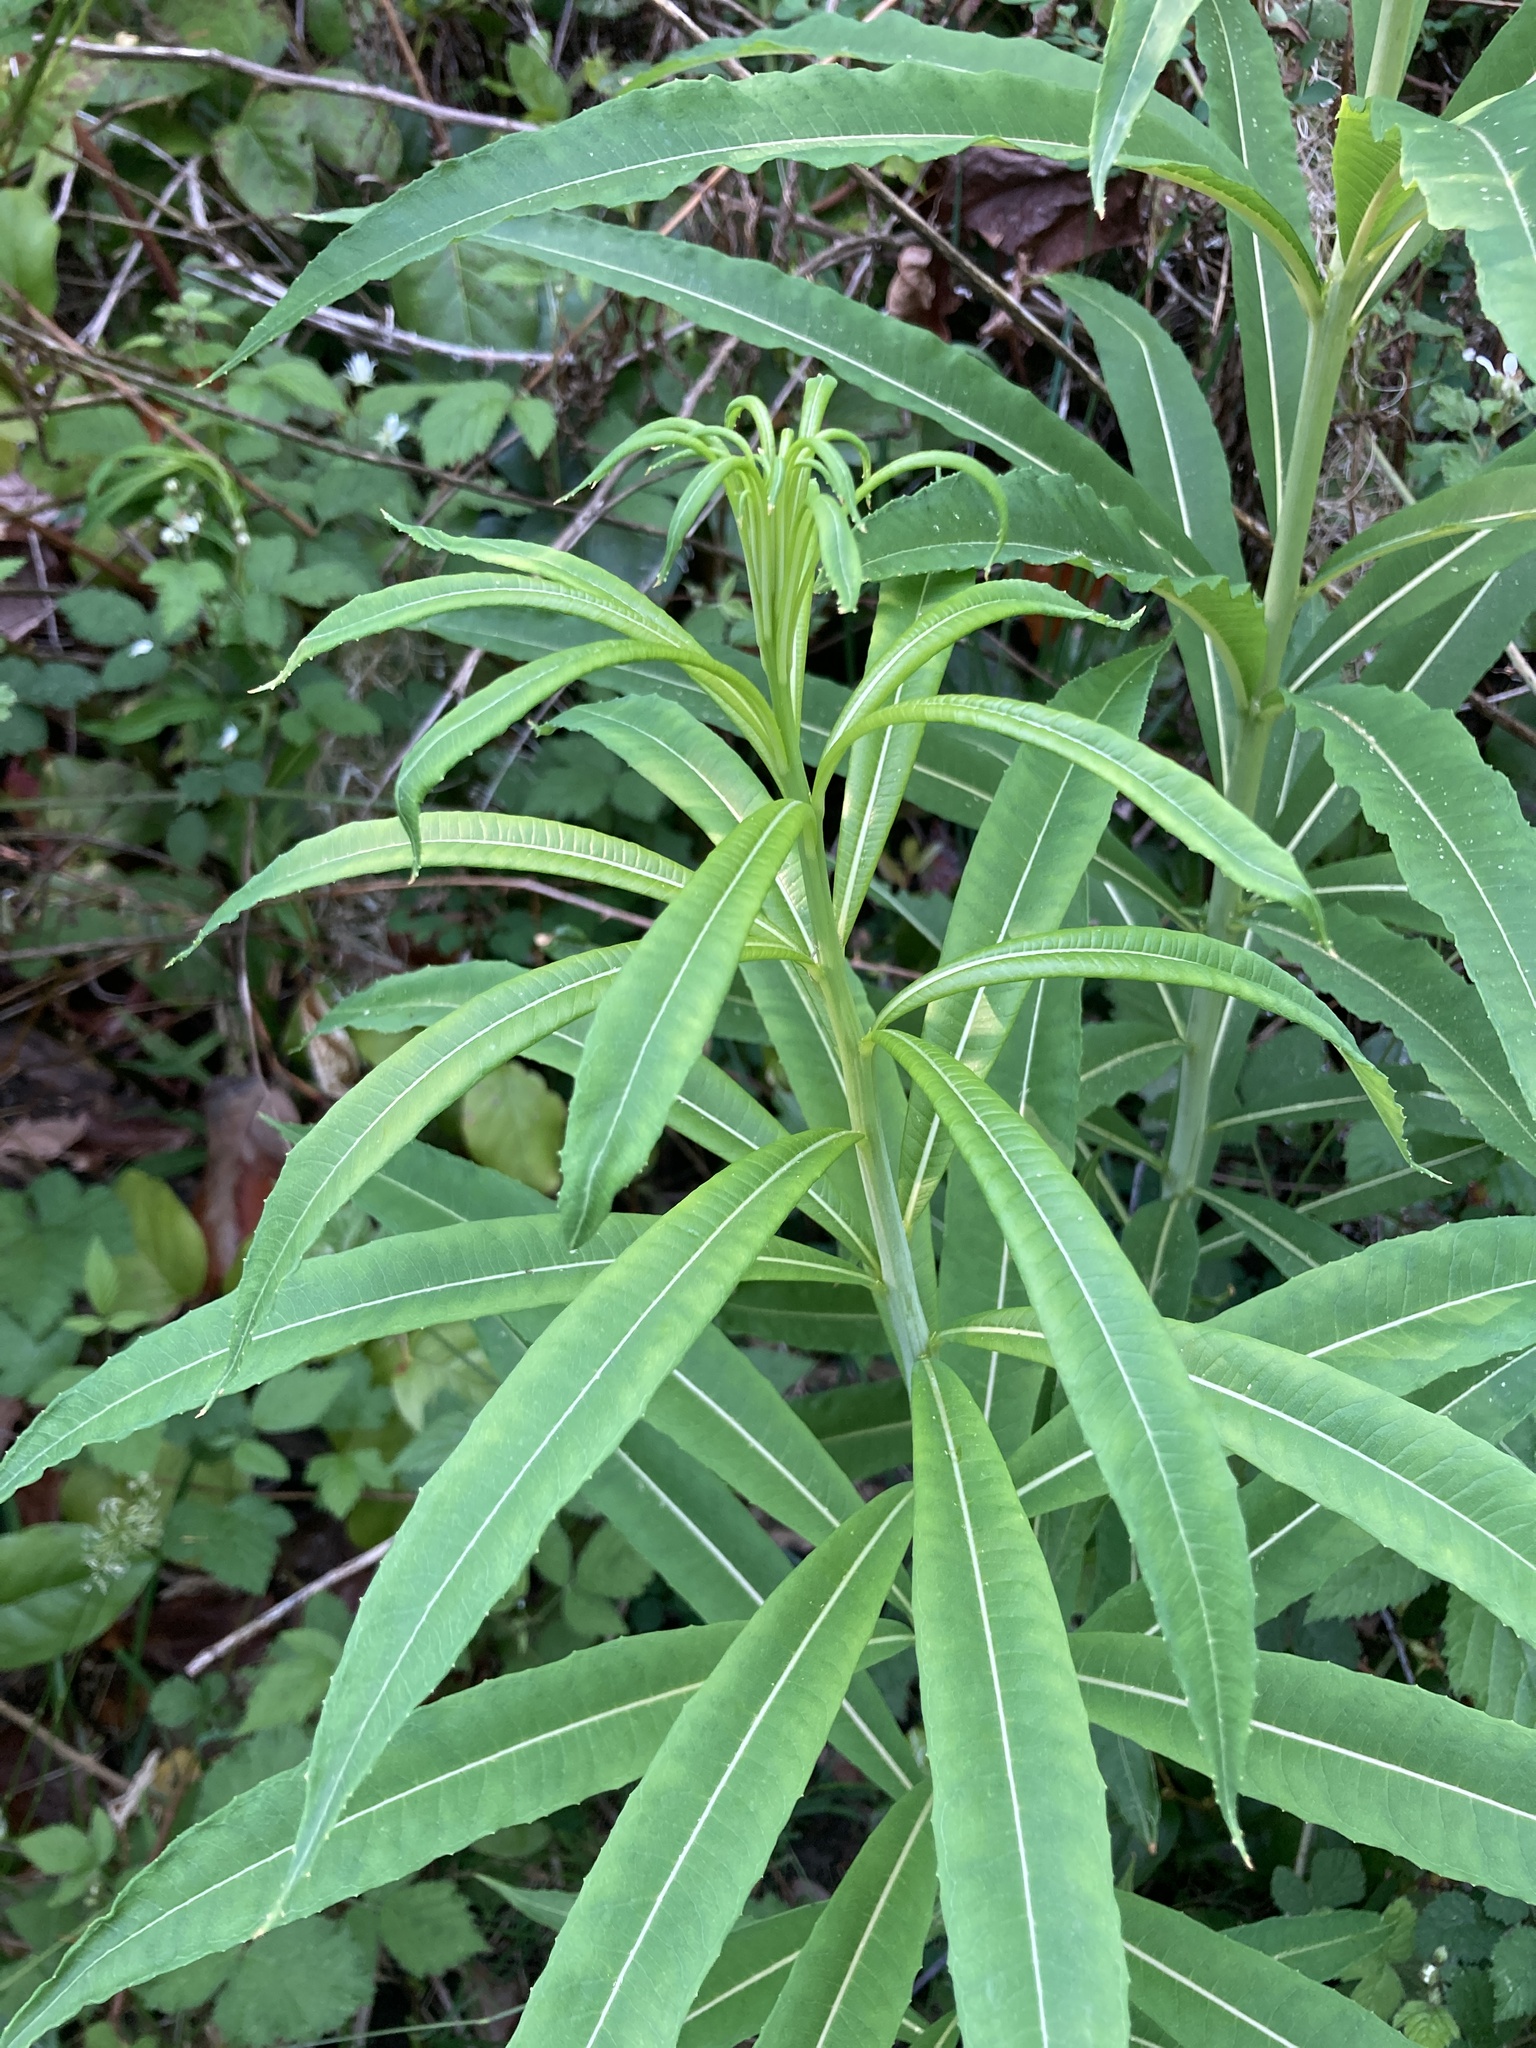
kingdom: Plantae
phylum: Tracheophyta
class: Magnoliopsida
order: Myrtales
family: Onagraceae
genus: Chamaenerion
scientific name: Chamaenerion angustifolium
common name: Fireweed
